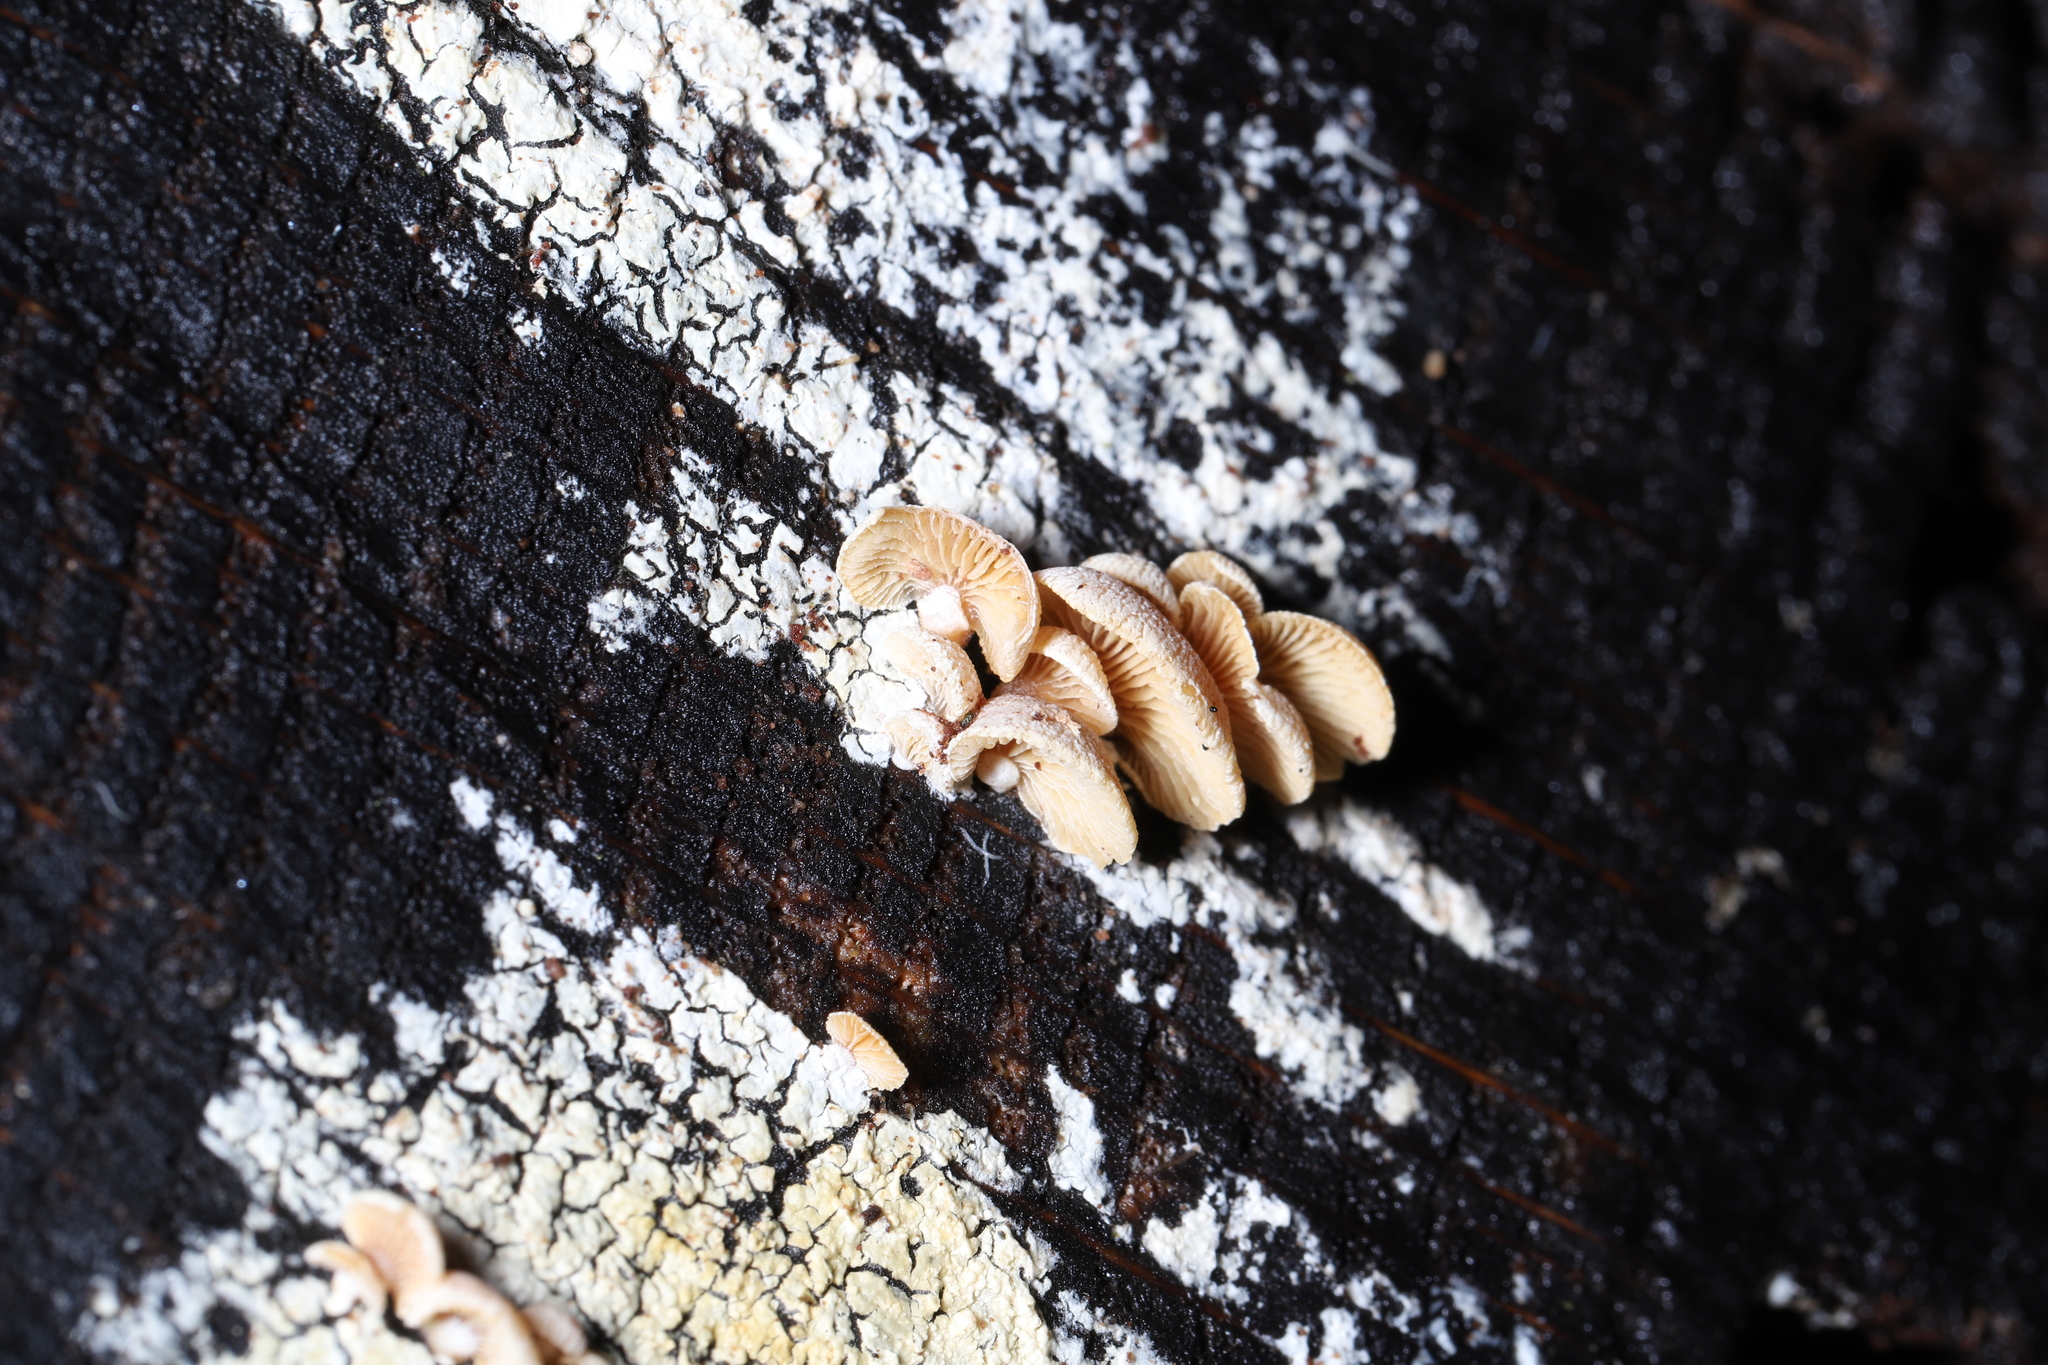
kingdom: Fungi
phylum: Basidiomycota
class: Agaricomycetes
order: Agaricales
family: Mycenaceae
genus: Panellus
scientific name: Panellus stipticus
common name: Bitter oysterling
